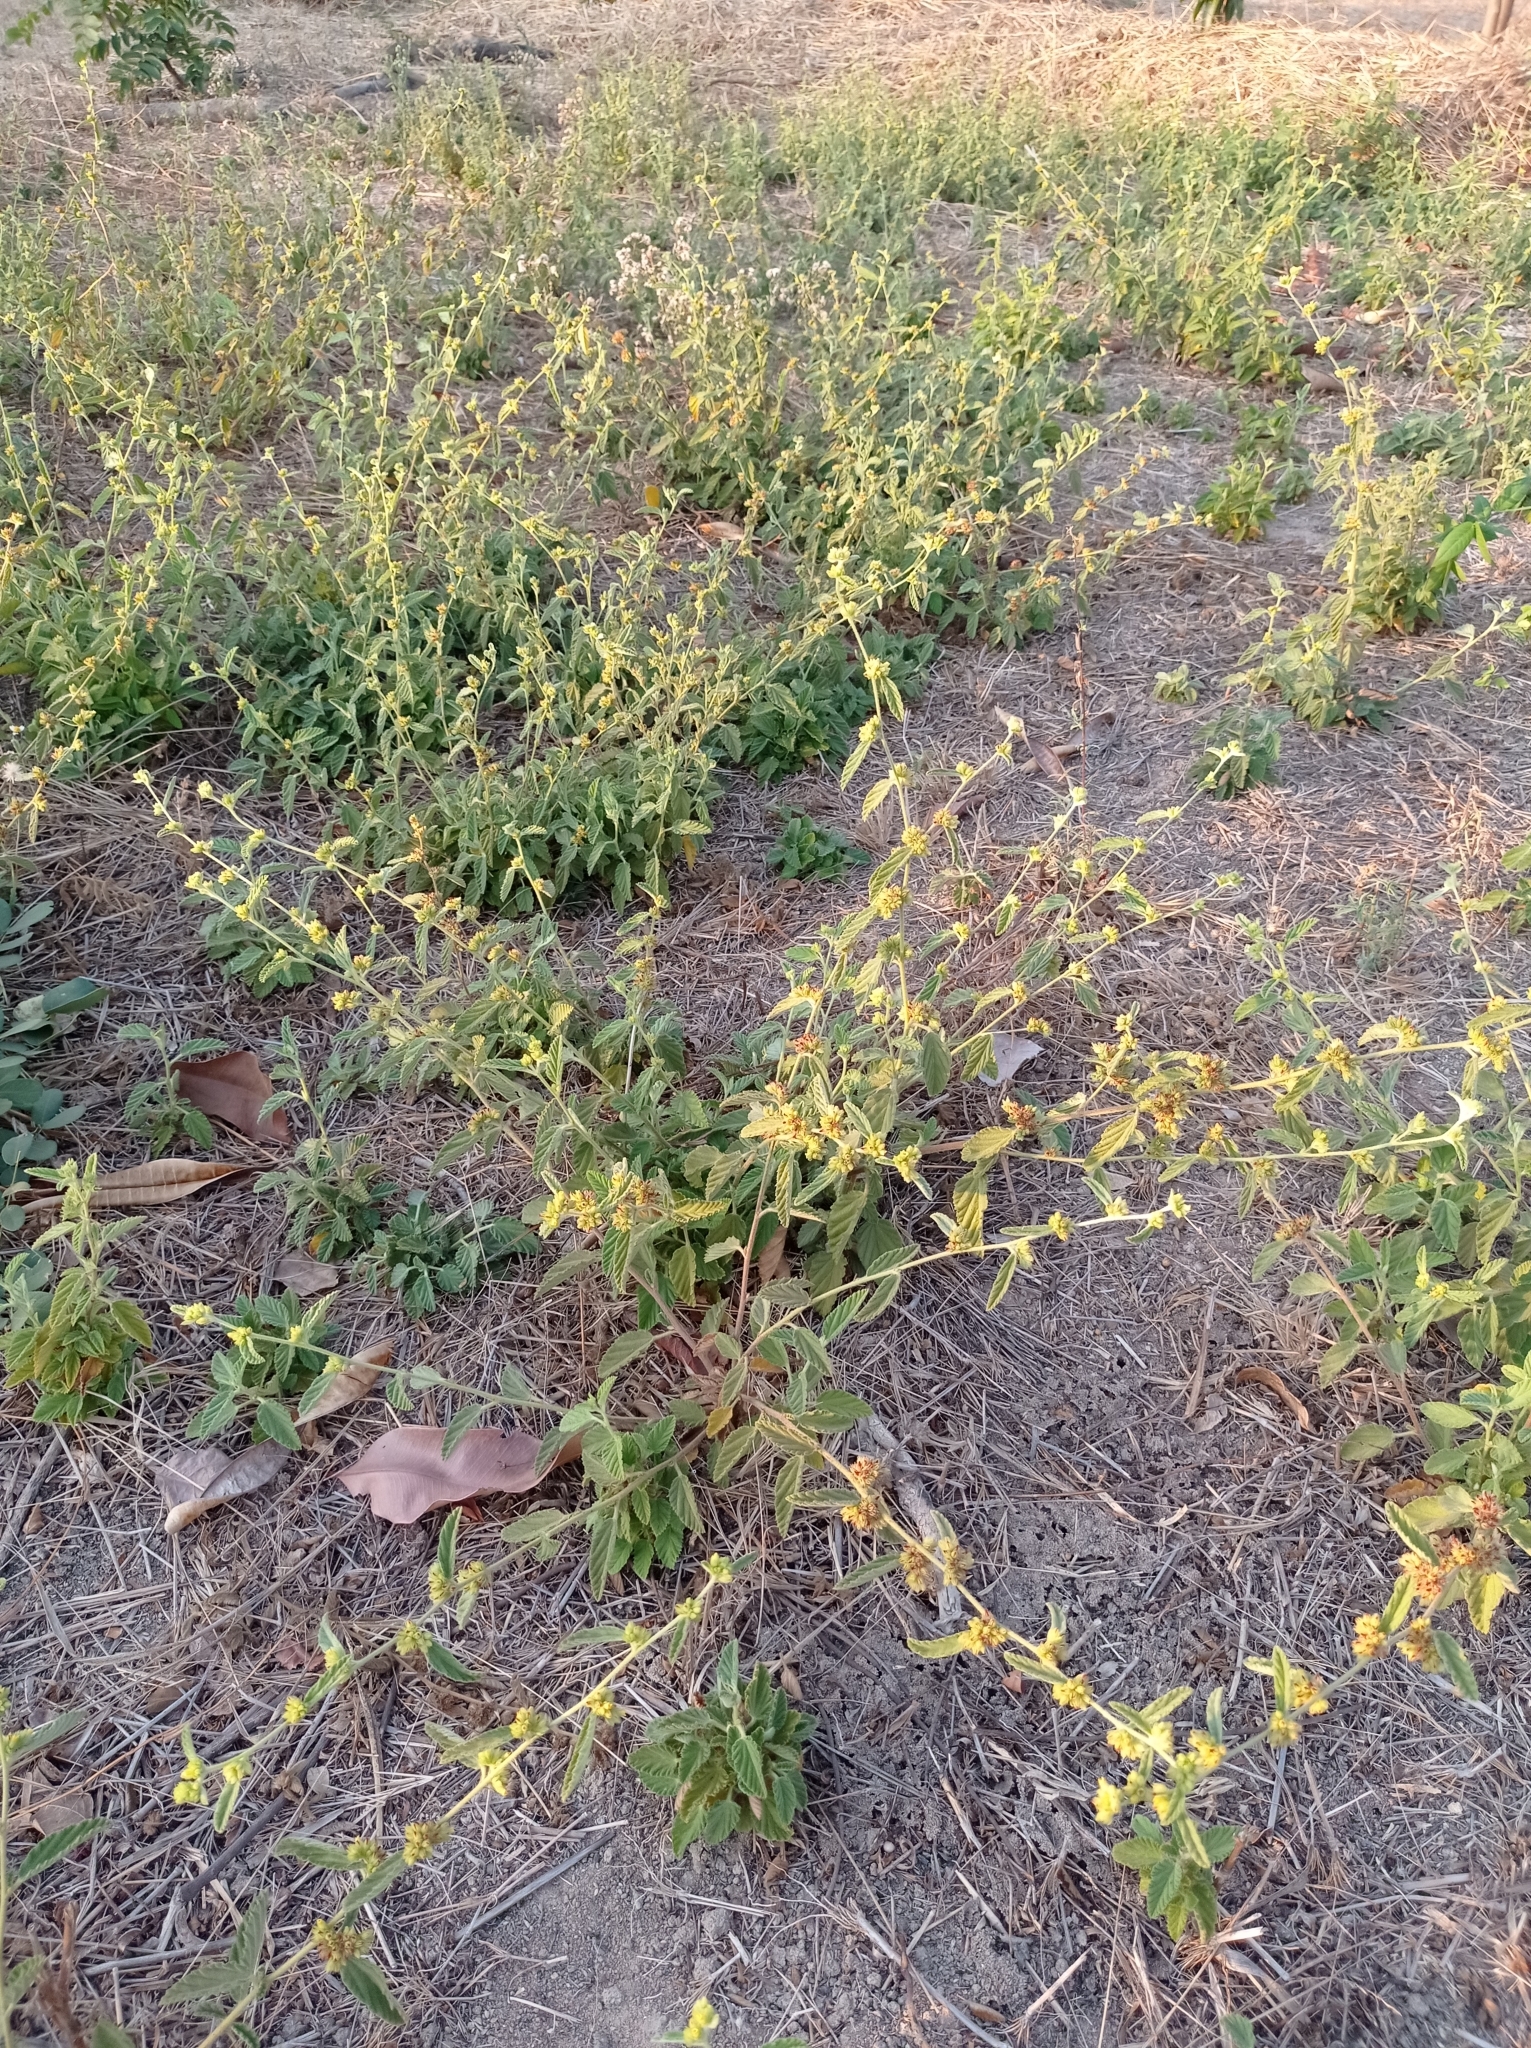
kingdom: Plantae
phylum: Tracheophyta
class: Magnoliopsida
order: Malvales
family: Malvaceae
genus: Waltheria
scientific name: Waltheria indica
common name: Leather-coat
